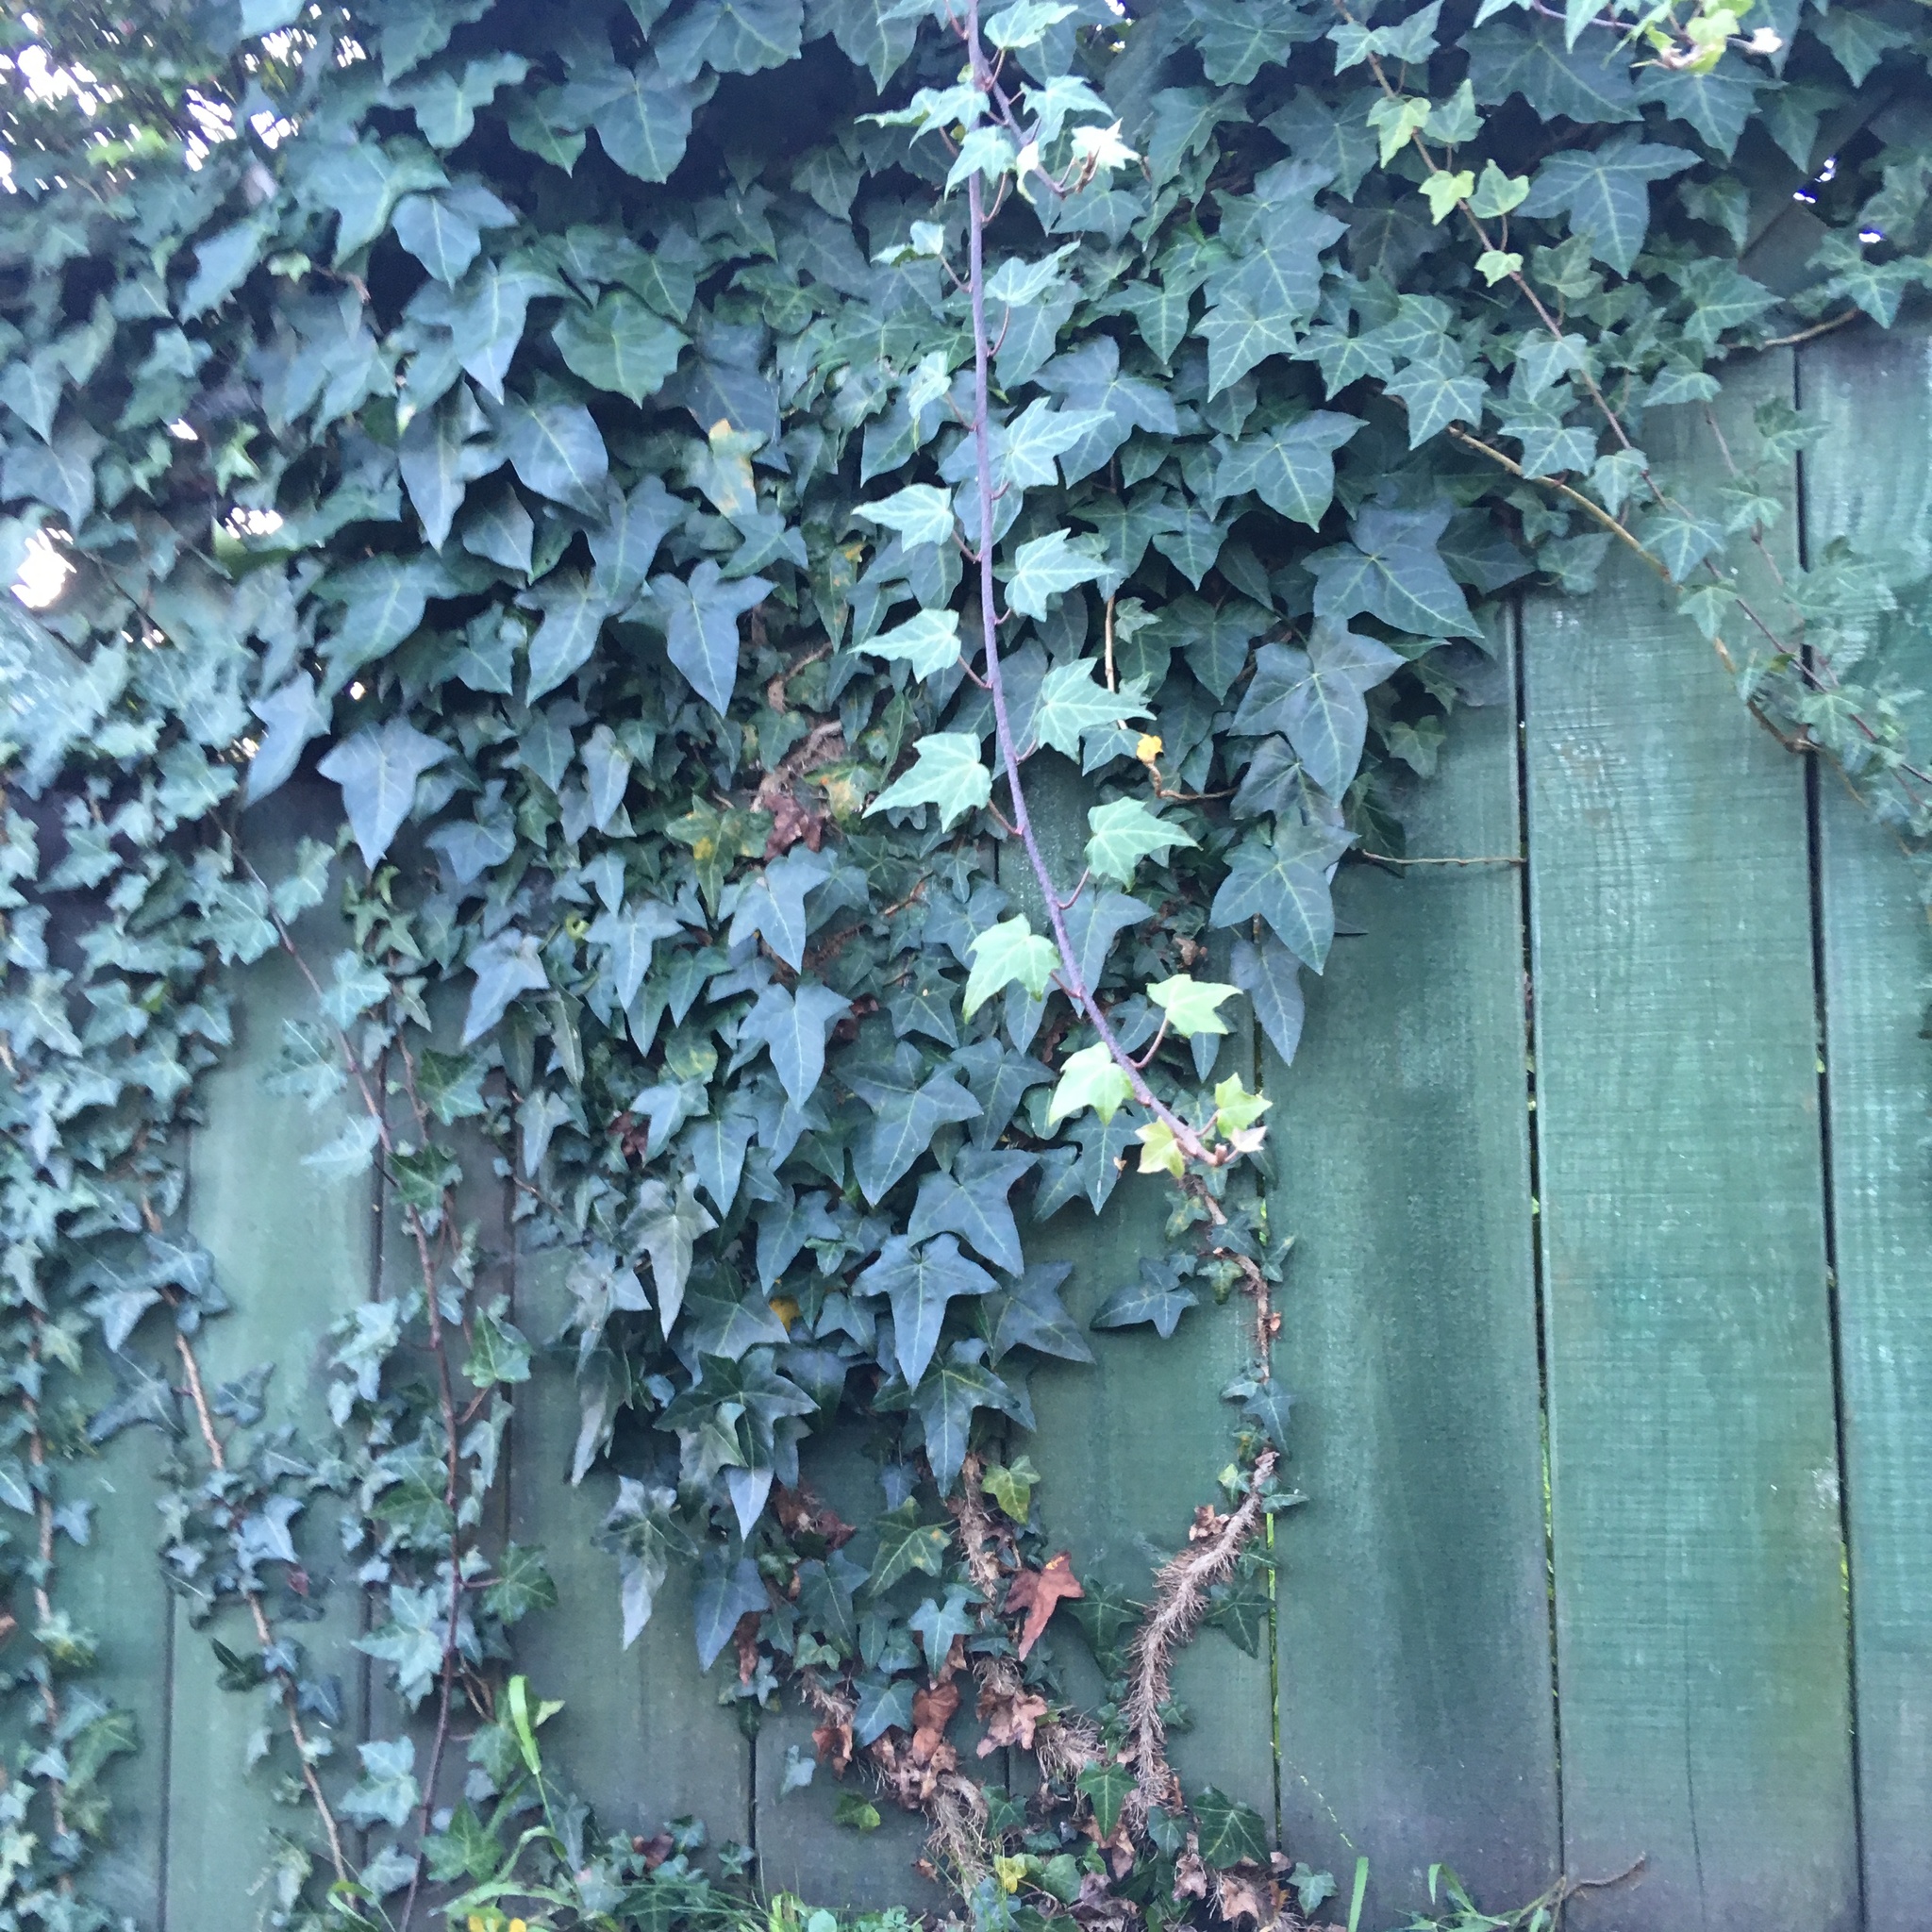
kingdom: Plantae
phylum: Tracheophyta
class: Magnoliopsida
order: Apiales
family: Araliaceae
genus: Hedera
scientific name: Hedera helix
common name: Ivy
